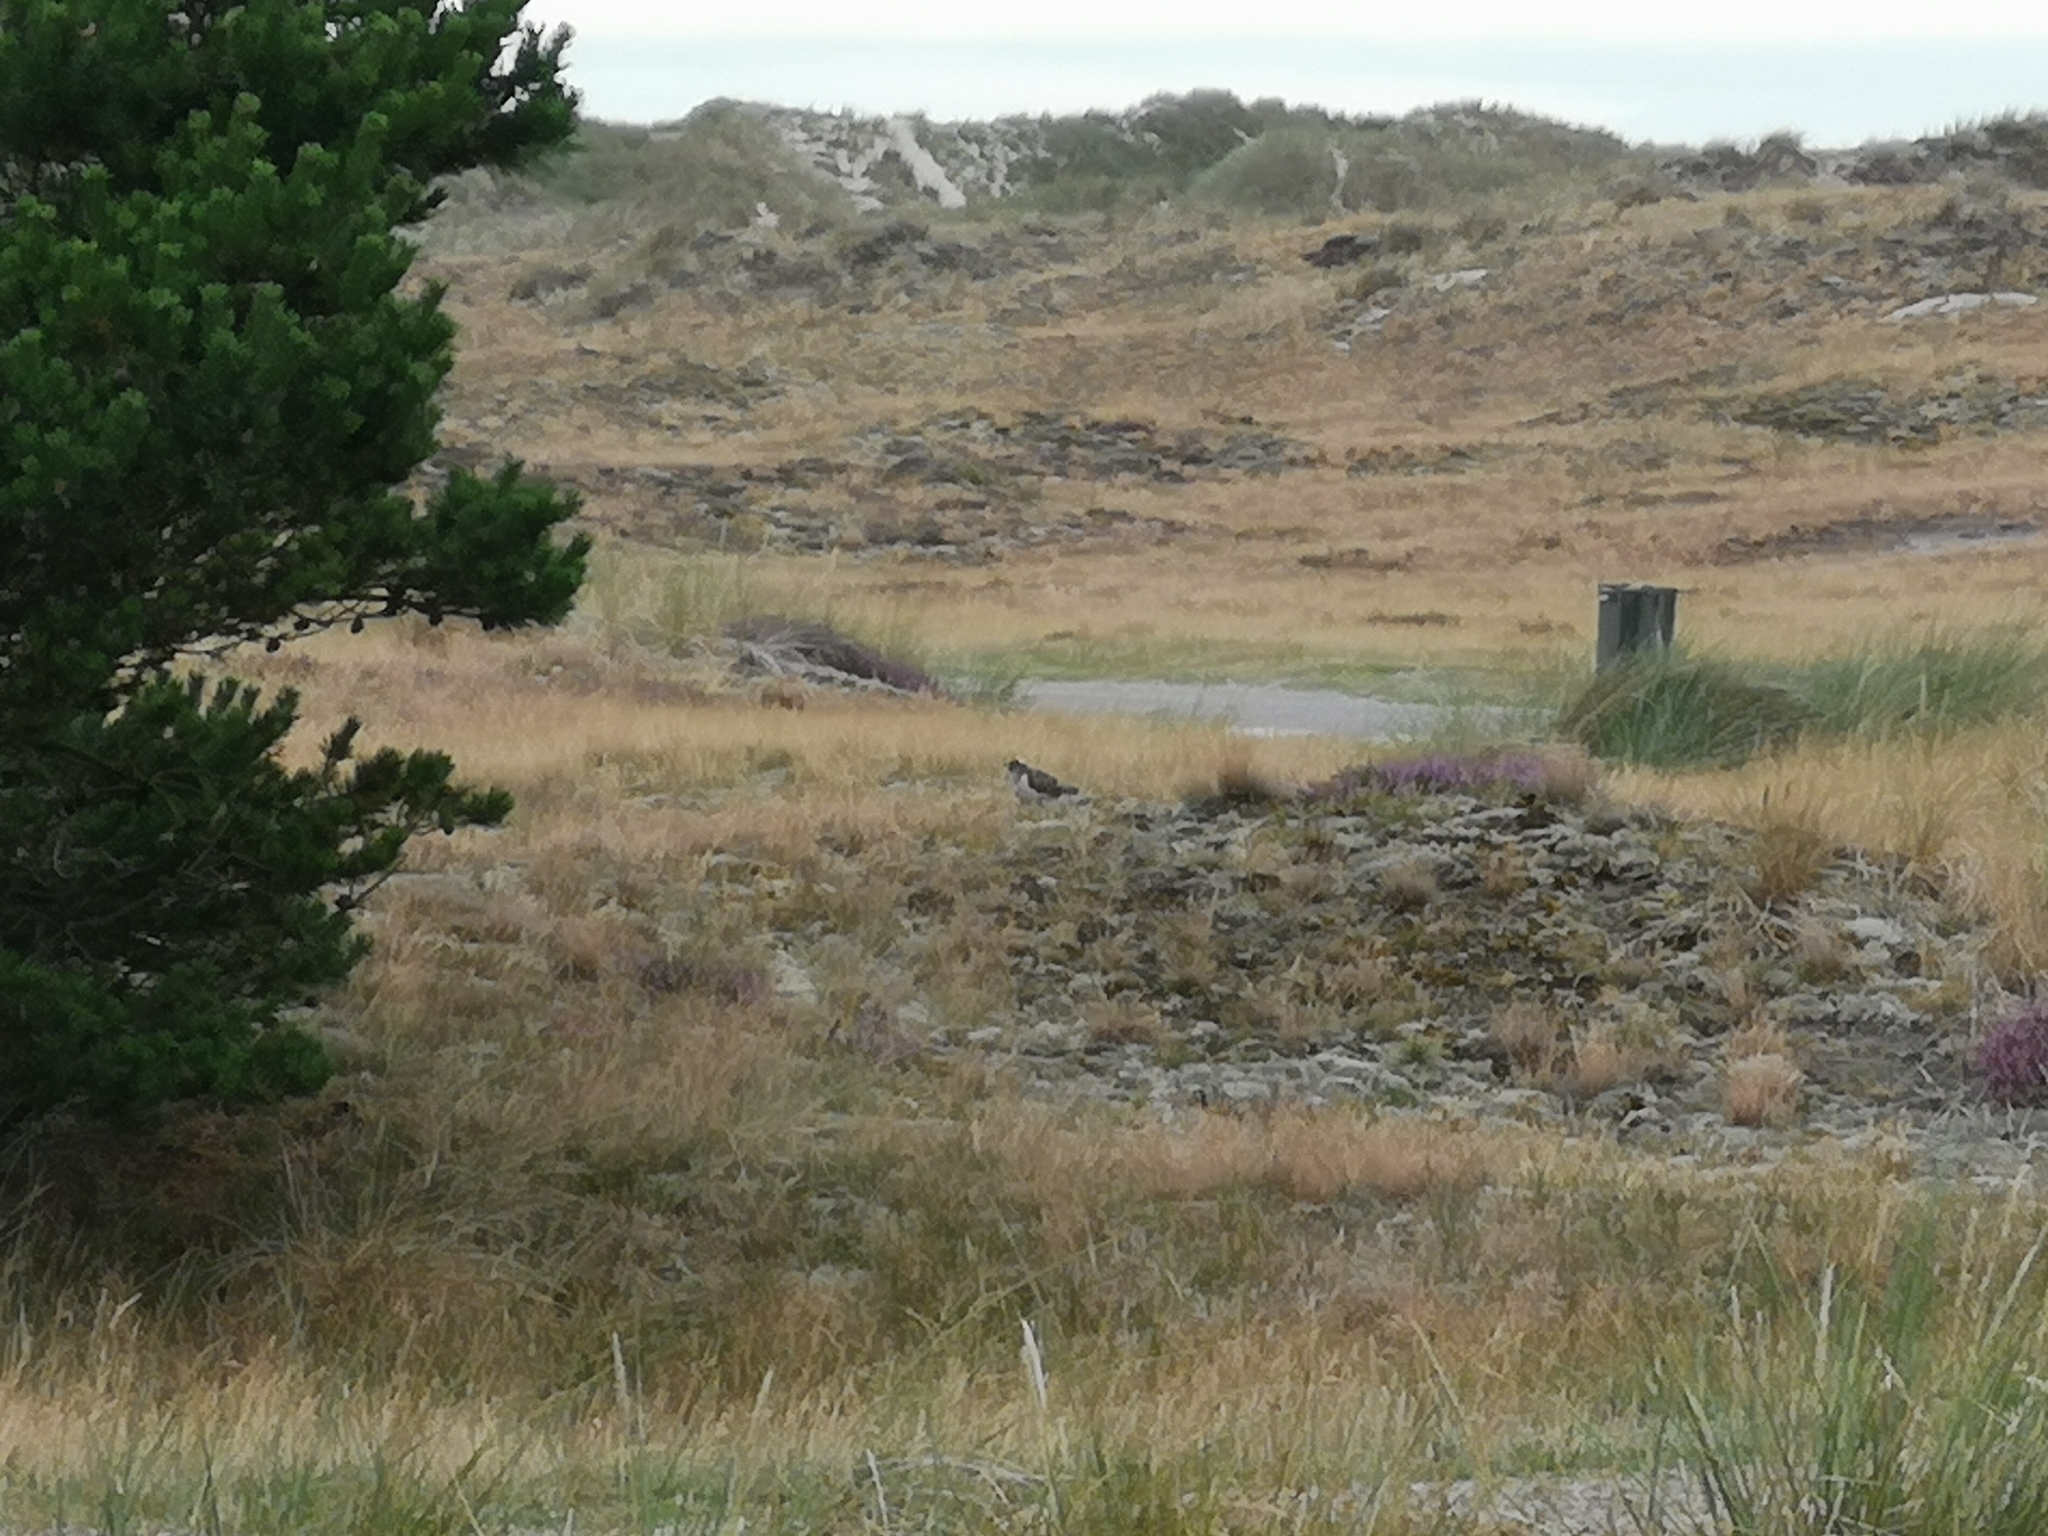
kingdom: Animalia
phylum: Chordata
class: Aves
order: Cuculiformes
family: Cuculidae
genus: Cuculus
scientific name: Cuculus canorus
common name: Common cuckoo
